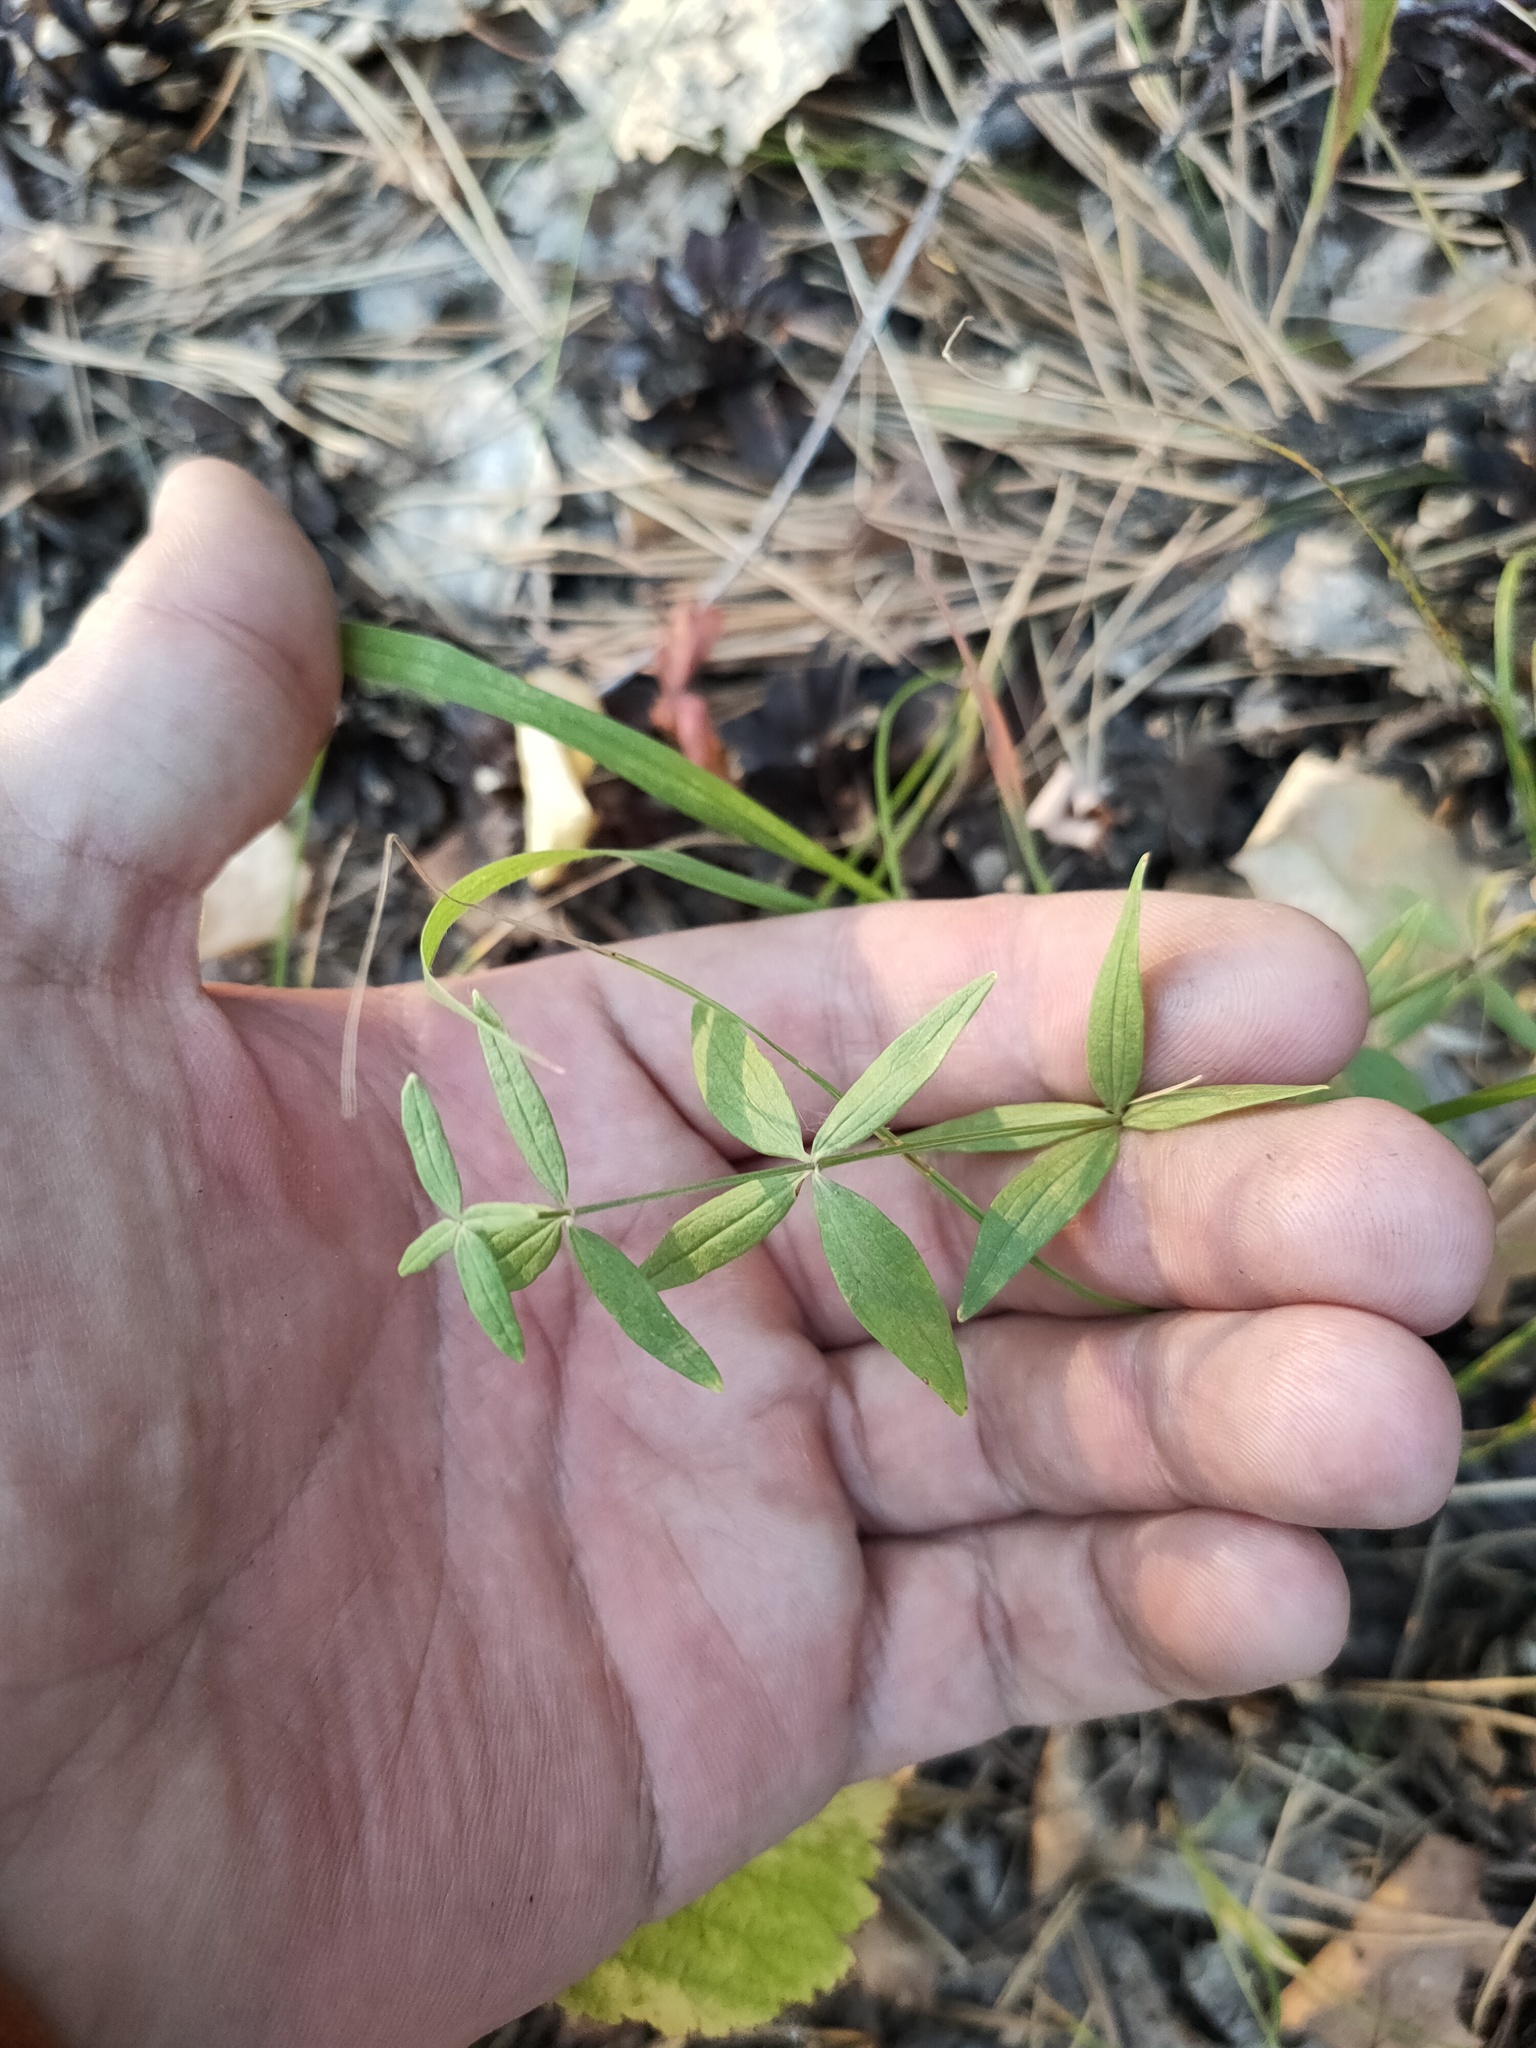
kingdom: Plantae
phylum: Tracheophyta
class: Magnoliopsida
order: Gentianales
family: Rubiaceae
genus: Galium
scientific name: Galium boreale
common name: Northern bedstraw
